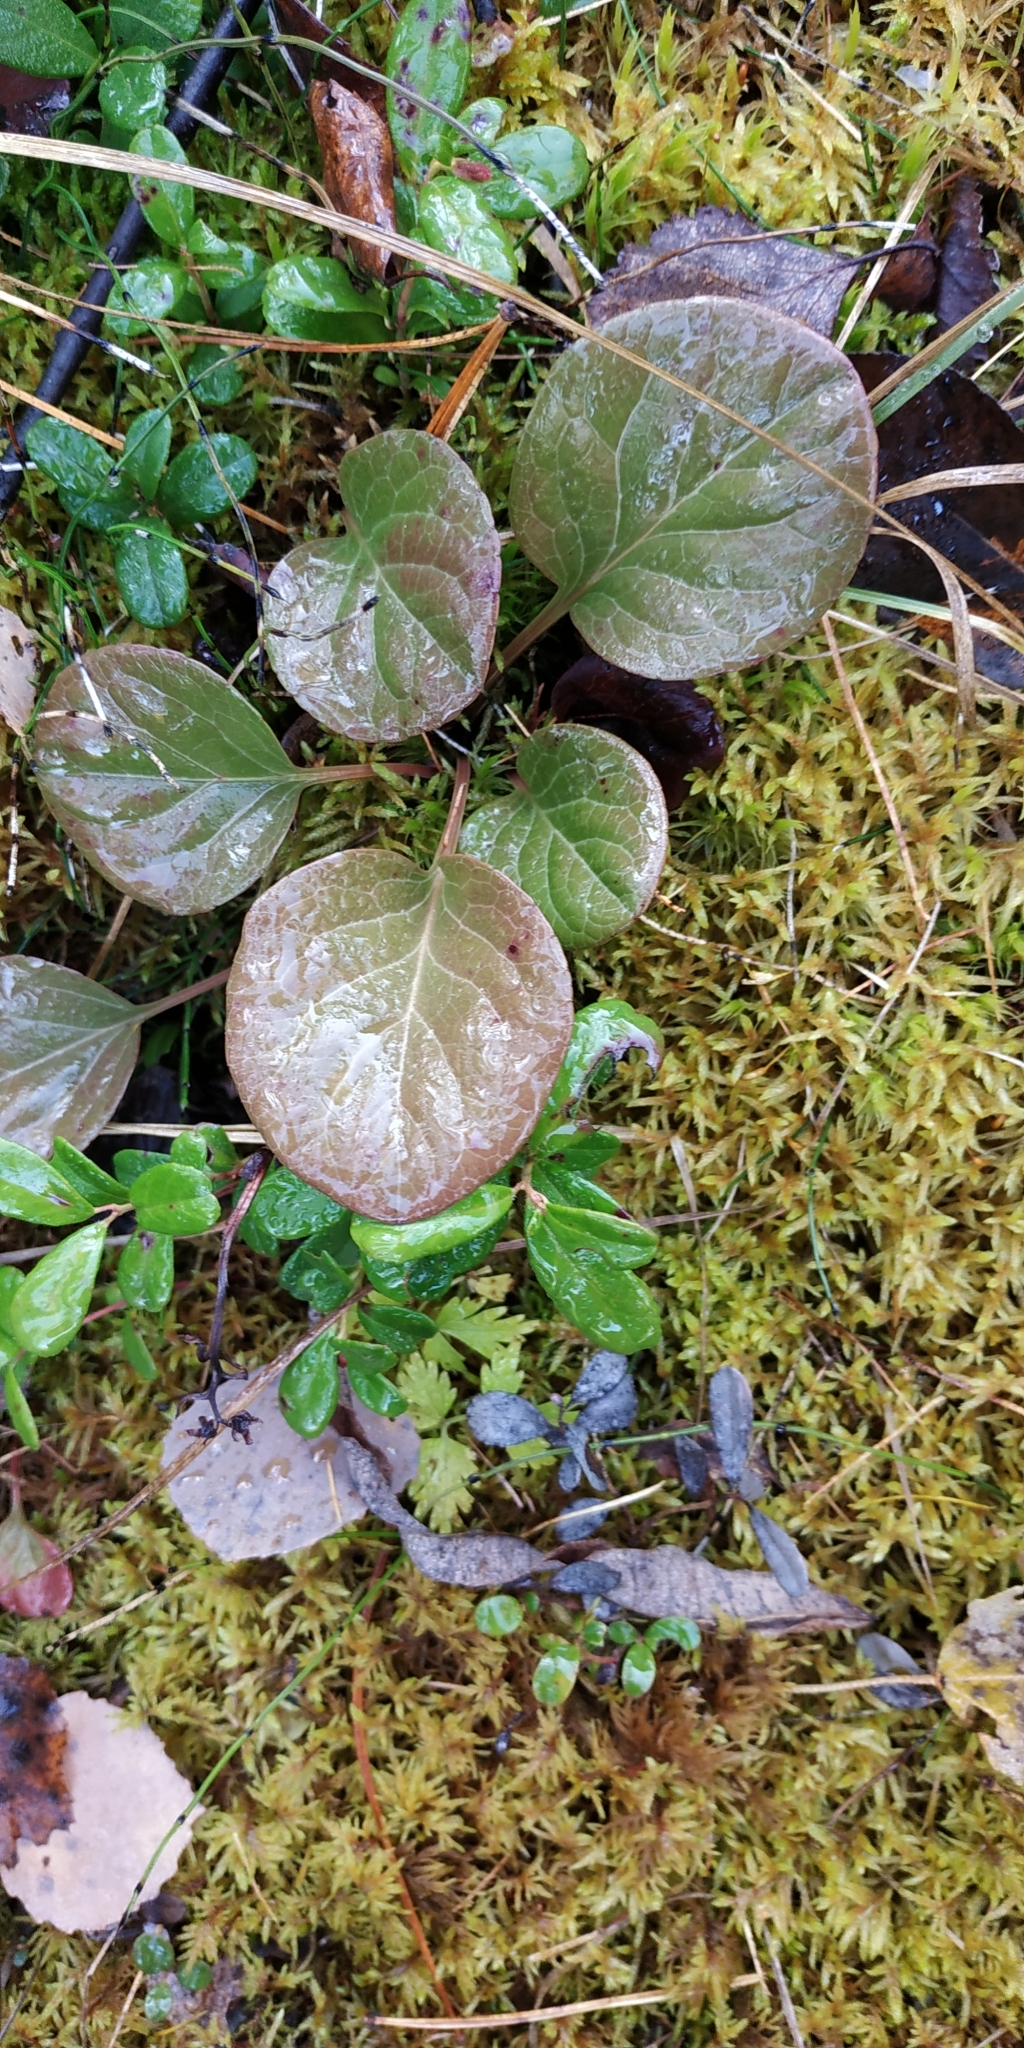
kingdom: Plantae
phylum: Tracheophyta
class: Magnoliopsida
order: Ericales
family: Ericaceae
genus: Pyrola
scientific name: Pyrola rotundifolia
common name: Round-leaved wintergreen
